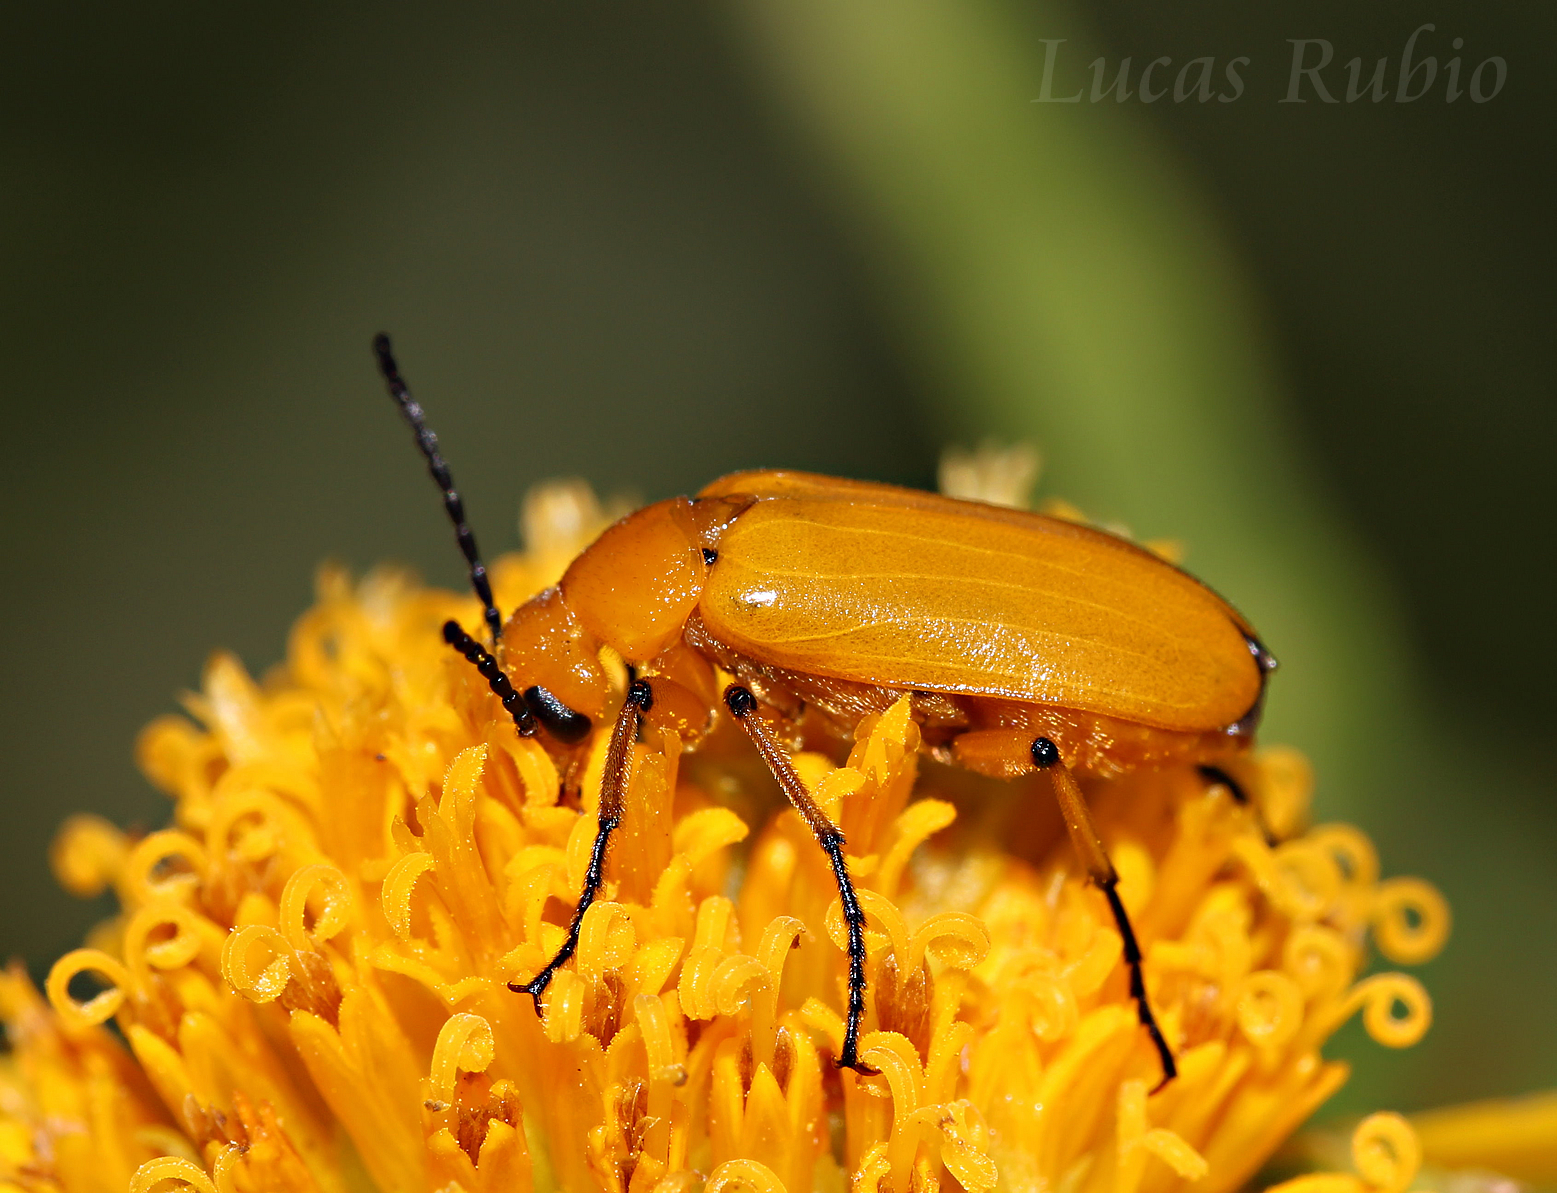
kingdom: Animalia
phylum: Arthropoda
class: Insecta
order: Coleoptera
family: Meloidae
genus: Nemognatha
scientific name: Nemognatha
